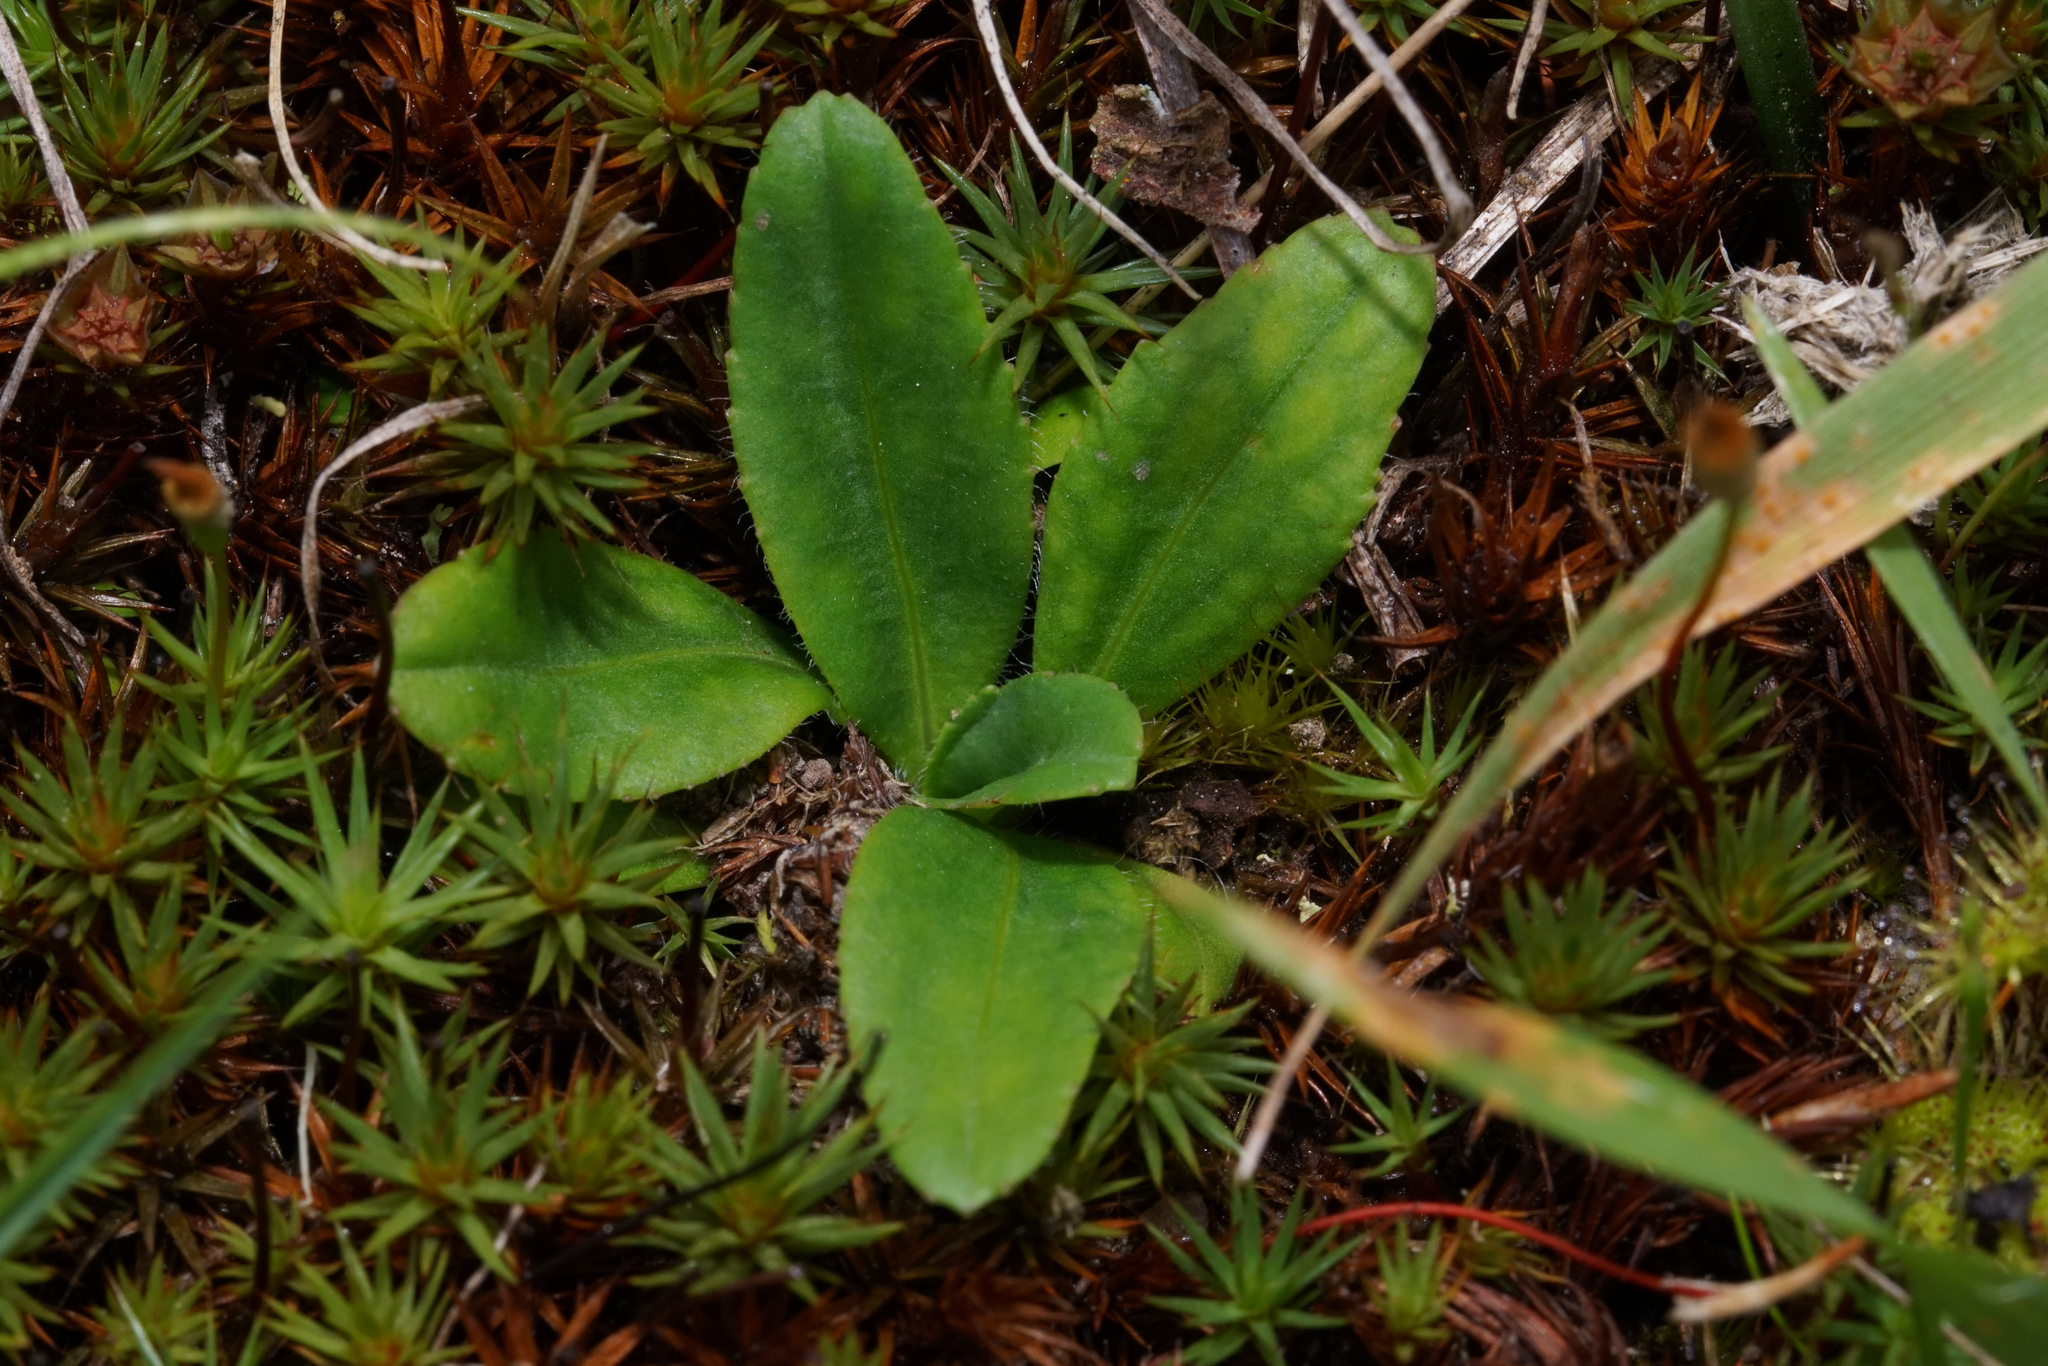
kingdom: Plantae
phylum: Tracheophyta
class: Magnoliopsida
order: Asterales
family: Asteraceae
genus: Solenogyne
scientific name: Solenogyne dominii
